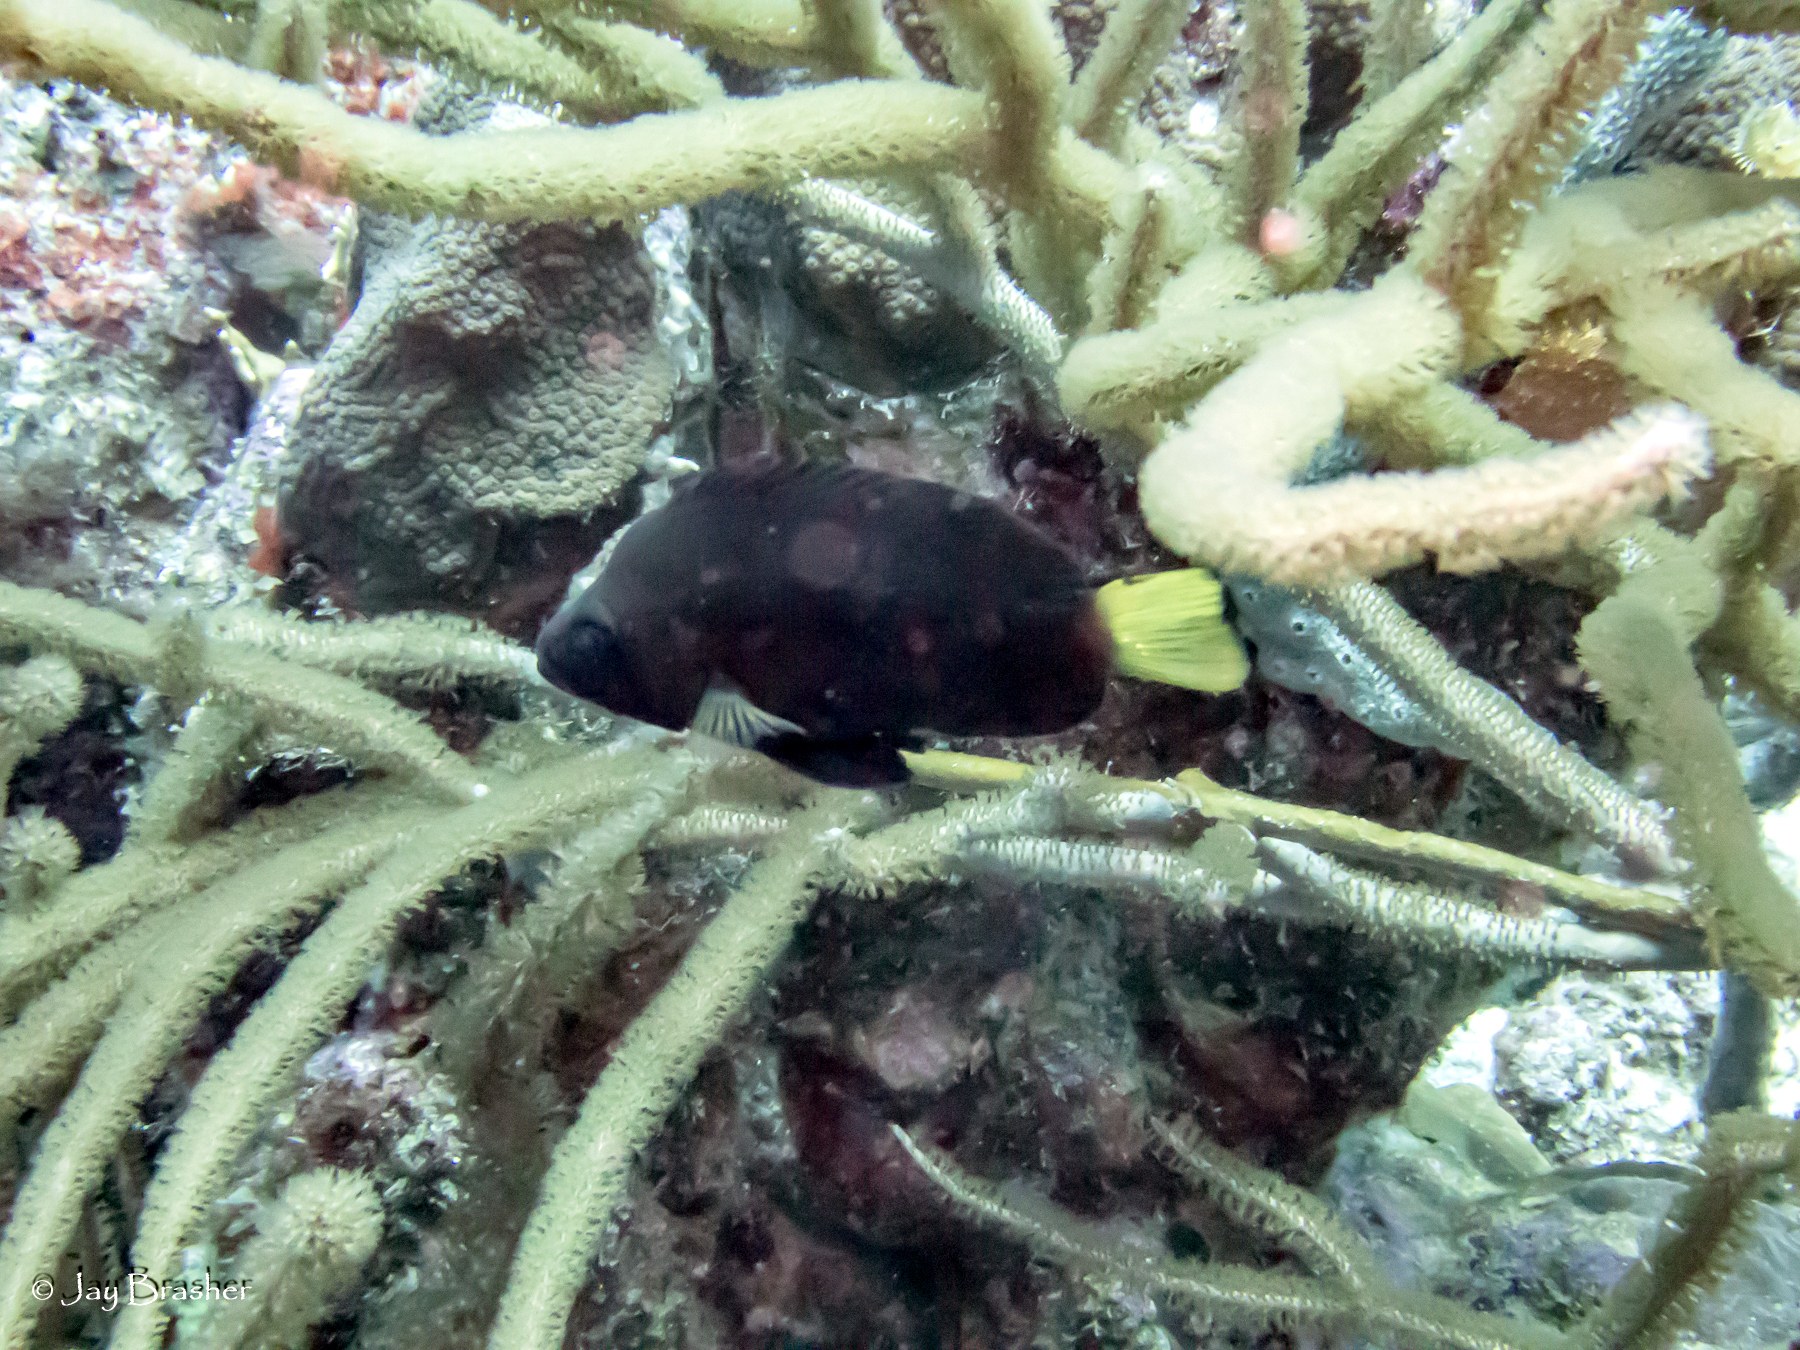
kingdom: Animalia
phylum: Chordata
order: Perciformes
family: Serranidae
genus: Hypoplectrus
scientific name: Hypoplectrus chlorurus
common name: Yellowtail hamlet
